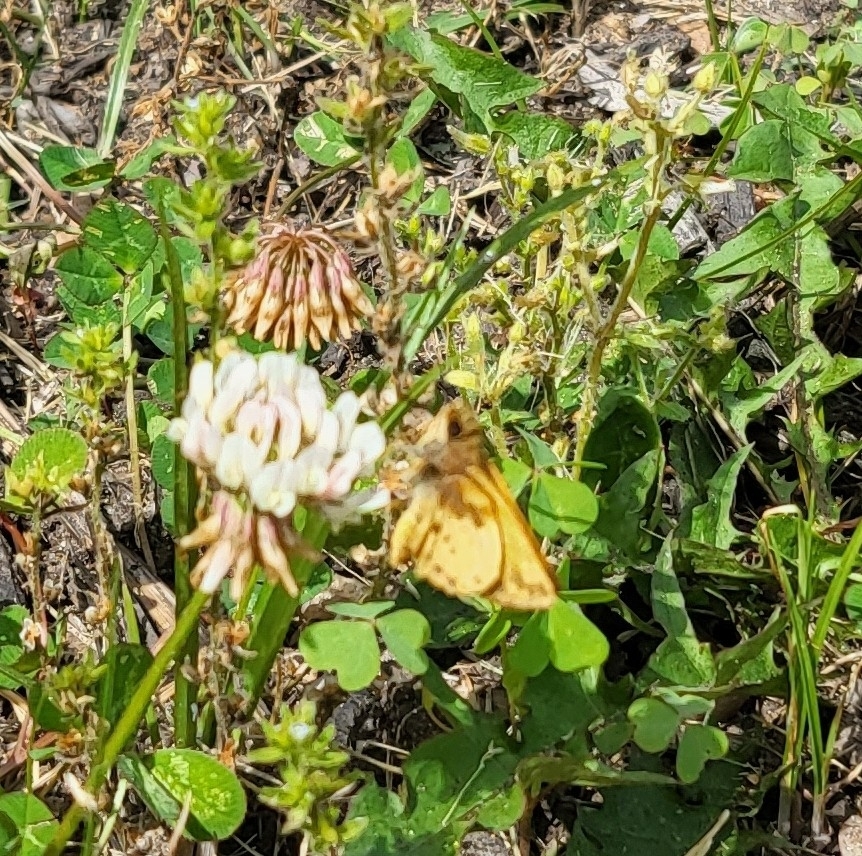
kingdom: Animalia
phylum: Arthropoda
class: Insecta
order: Lepidoptera
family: Hesperiidae
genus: Lon
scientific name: Lon zabulon
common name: Zabulon skipper
